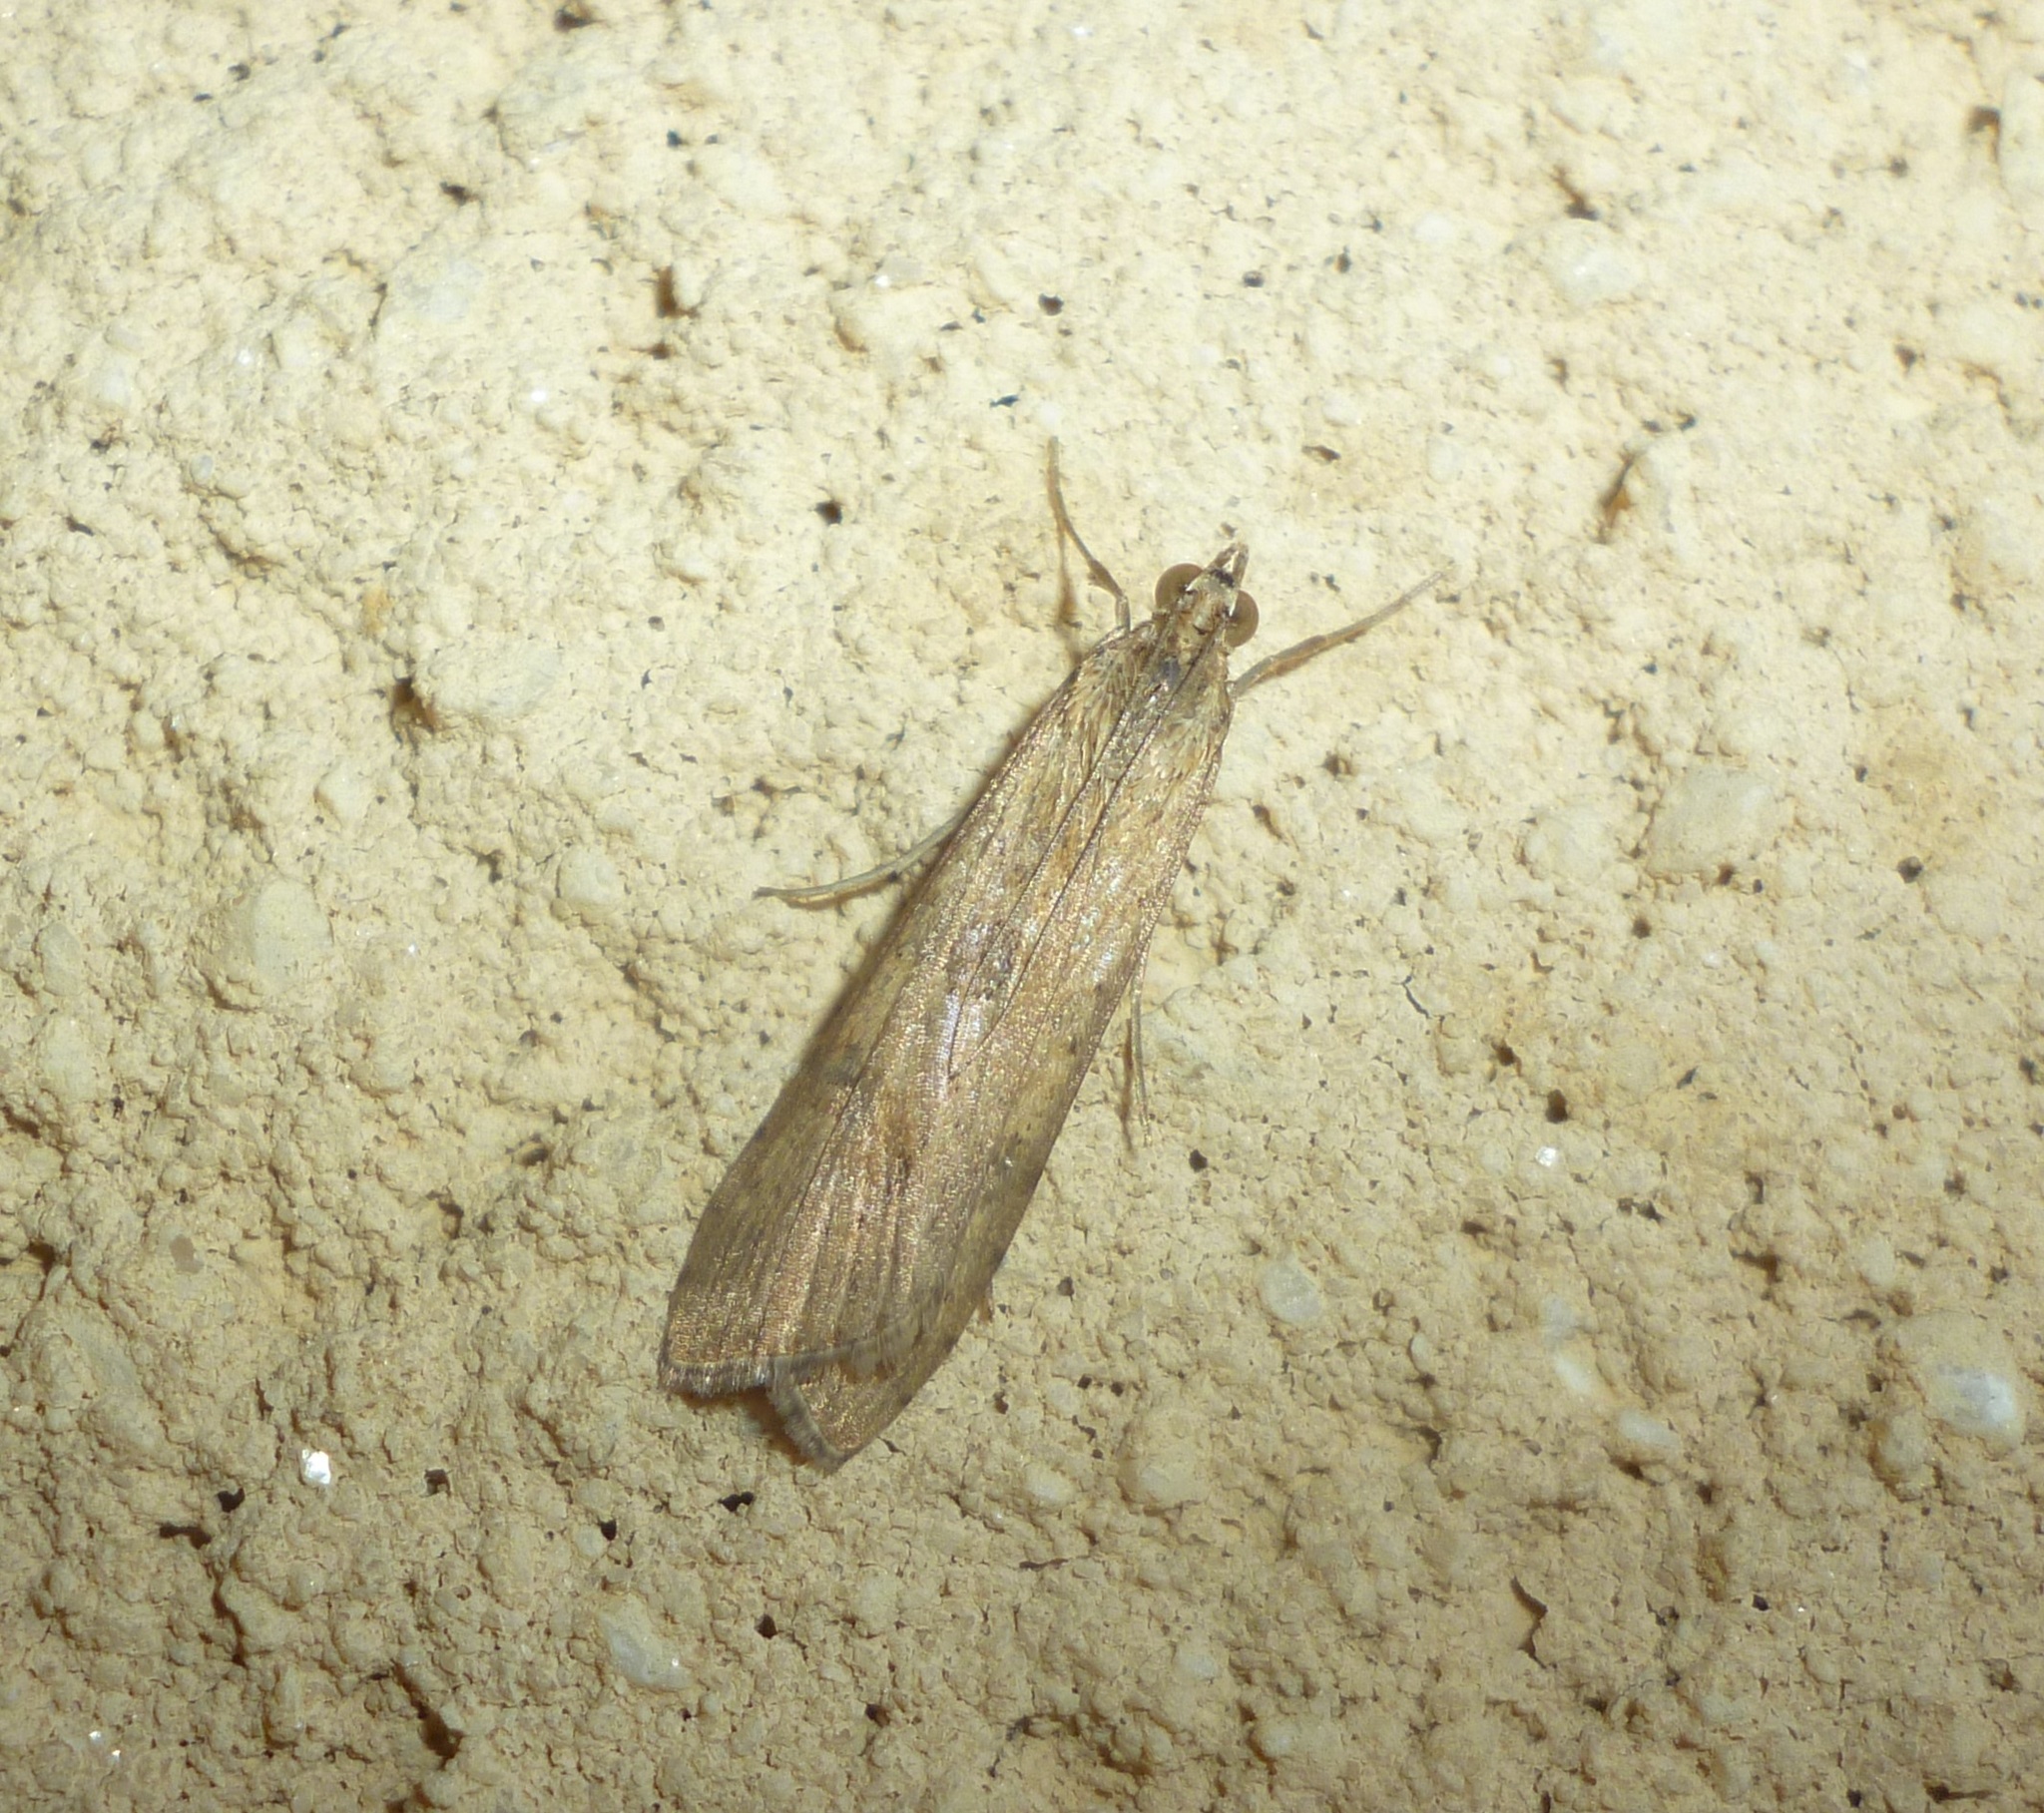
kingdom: Animalia
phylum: Arthropoda
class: Insecta
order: Lepidoptera
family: Crambidae
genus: Nomophila
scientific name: Nomophila noctuella
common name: Rush veneer
